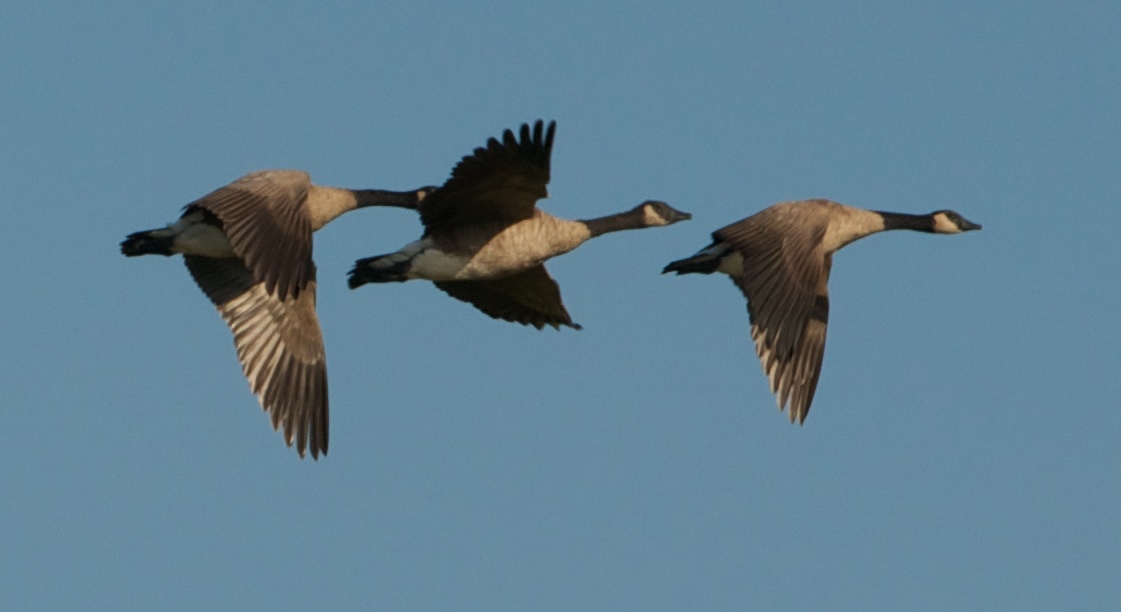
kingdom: Animalia
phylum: Chordata
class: Aves
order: Anseriformes
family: Anatidae
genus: Branta
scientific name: Branta canadensis
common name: Canada goose
